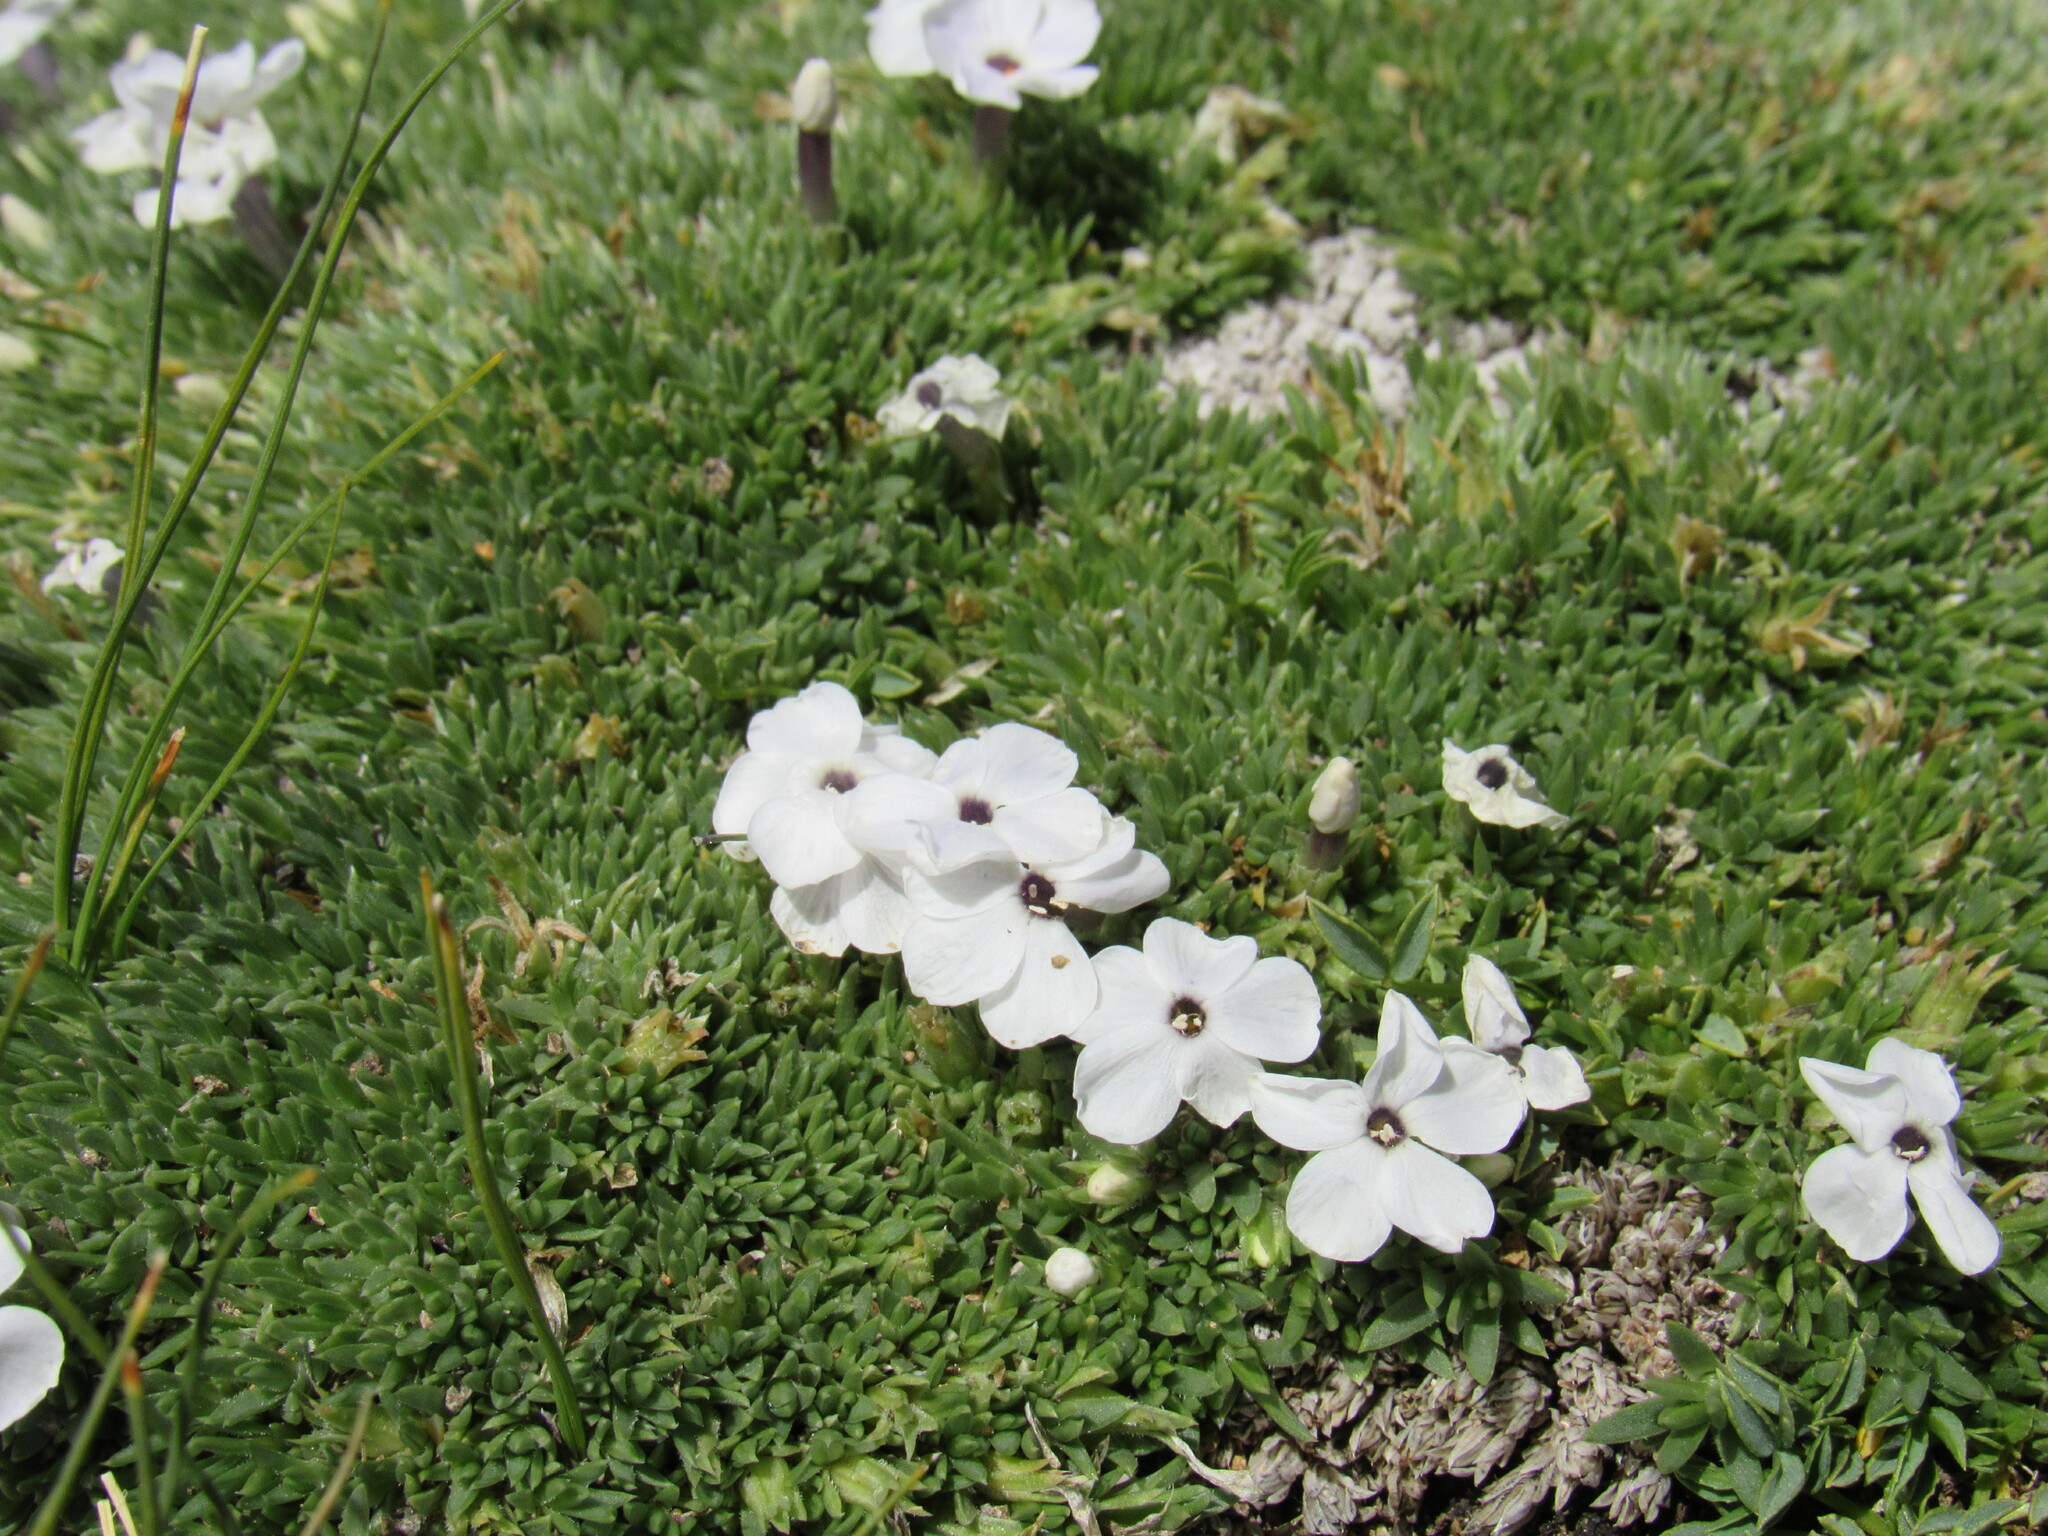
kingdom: Plantae
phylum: Tracheophyta
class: Magnoliopsida
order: Ericales
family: Polemoniaceae
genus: Phlox
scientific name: Phlox condensata
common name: Compact phlox
